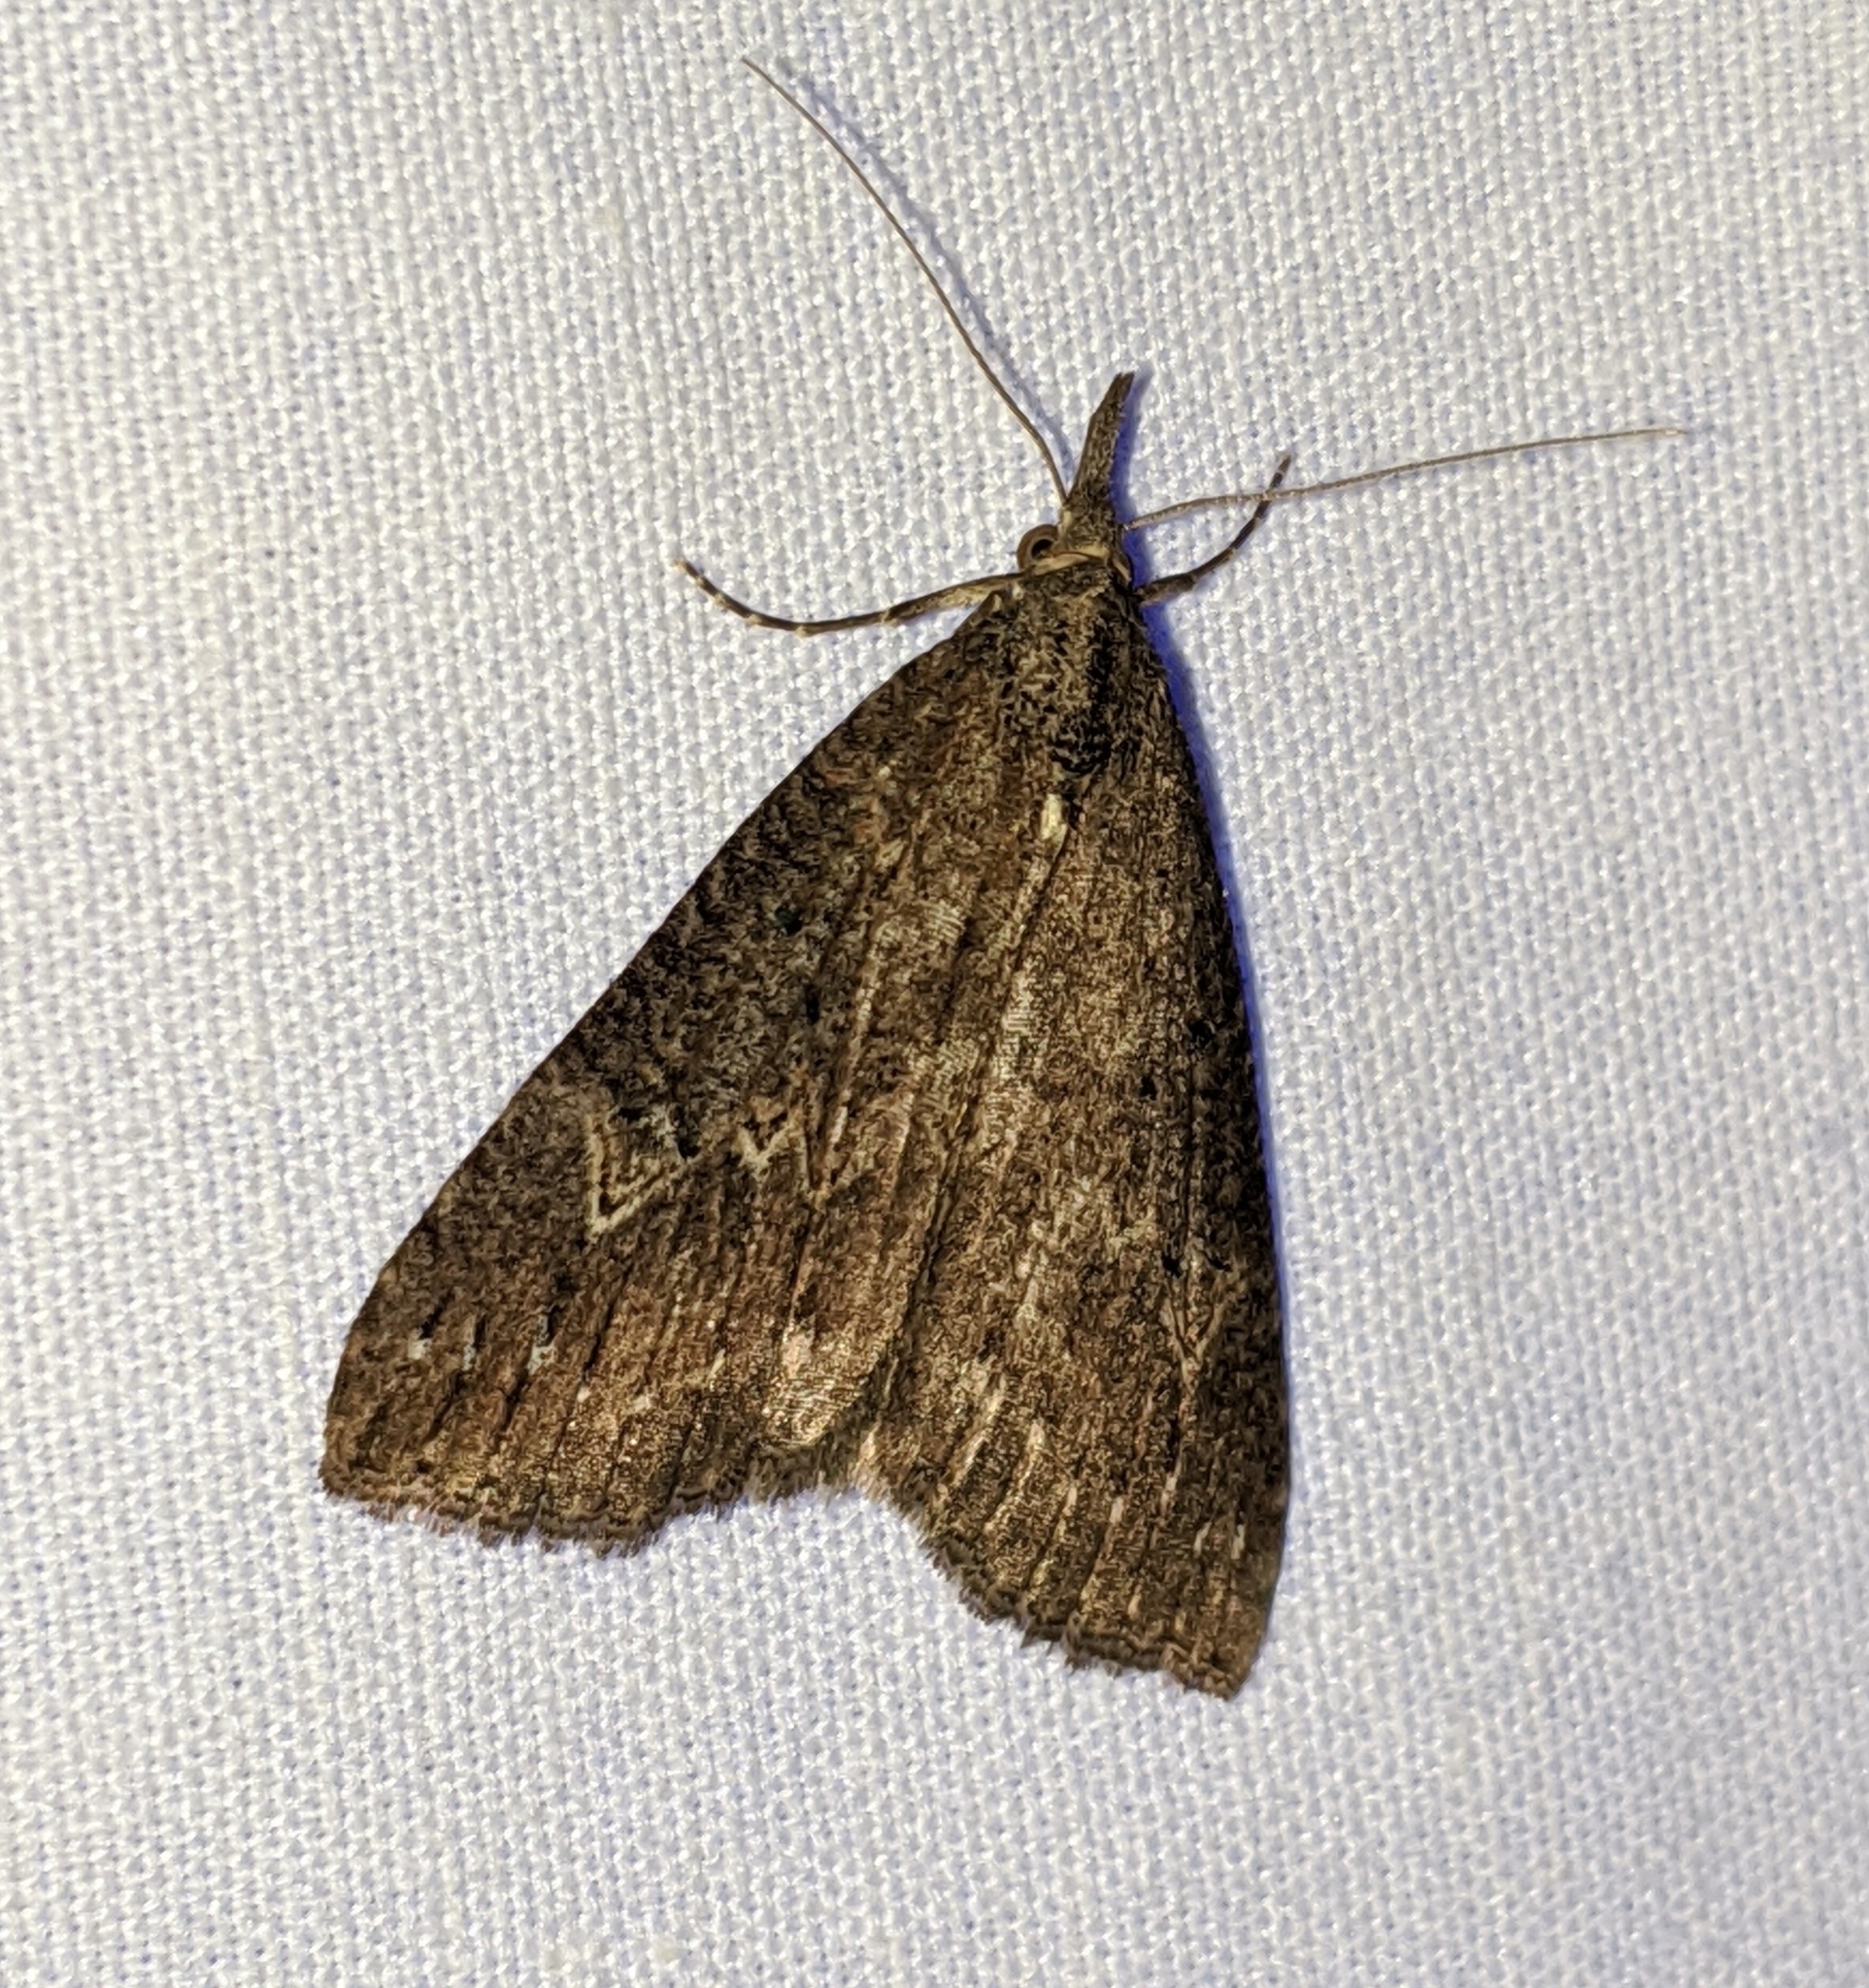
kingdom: Animalia
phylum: Arthropoda
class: Insecta
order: Lepidoptera
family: Erebidae
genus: Hypena
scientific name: Hypena humuli
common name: Hop vine snout
